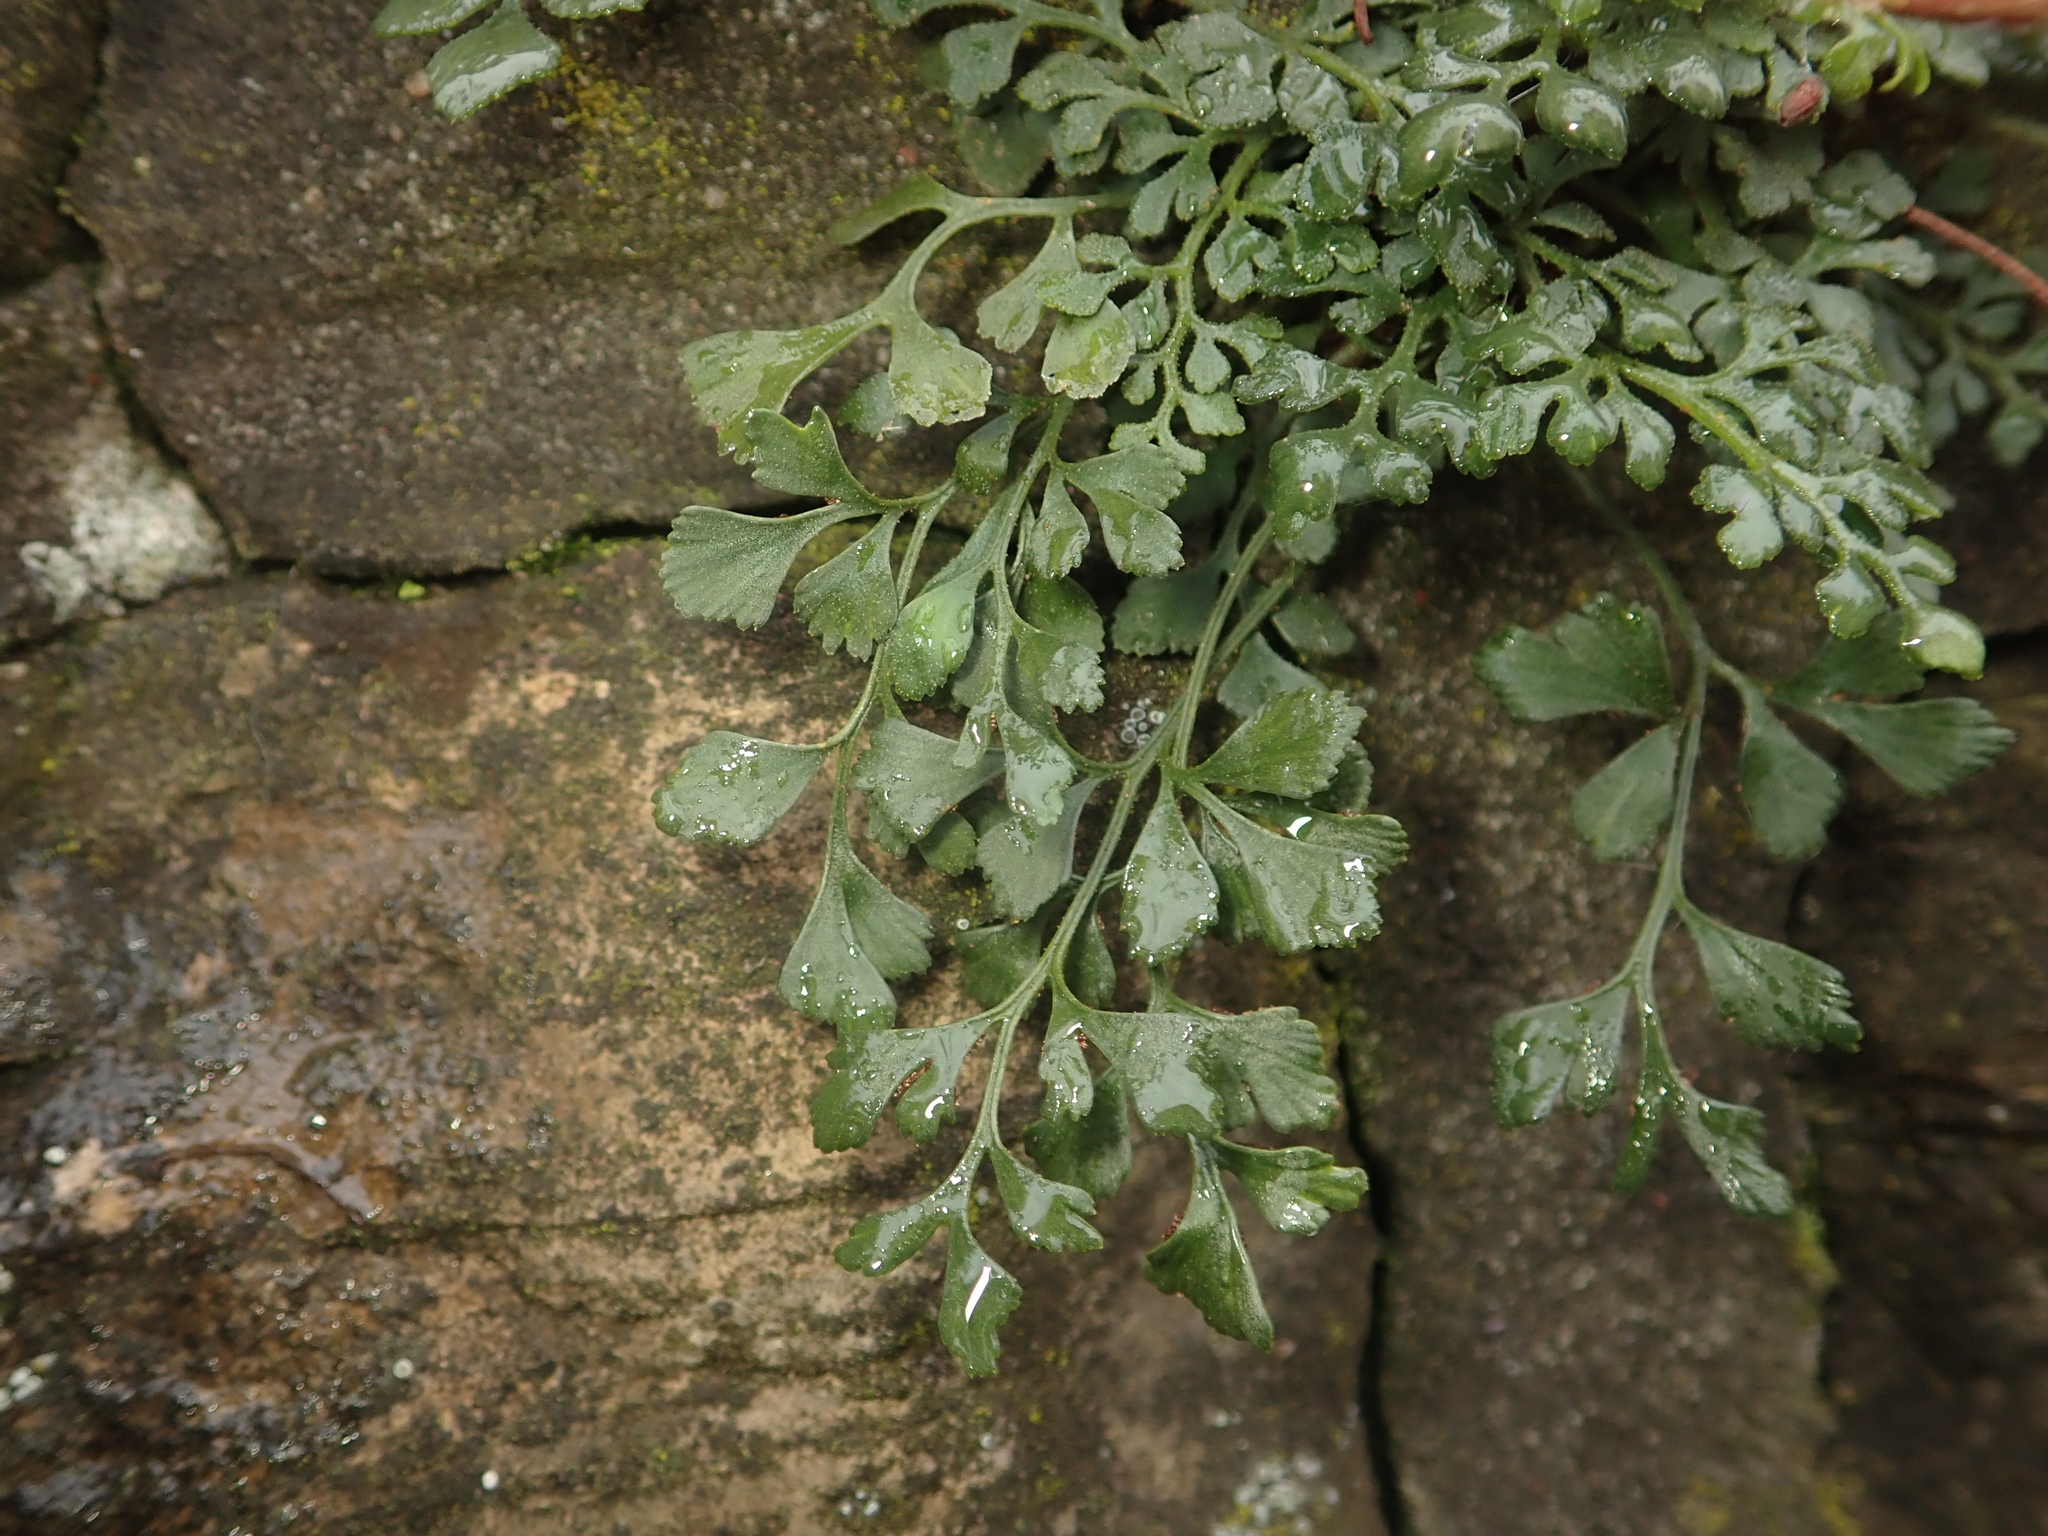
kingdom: Plantae
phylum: Tracheophyta
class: Polypodiopsida
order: Polypodiales
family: Aspleniaceae
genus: Asplenium
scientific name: Asplenium ruta-muraria
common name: Wall-rue
